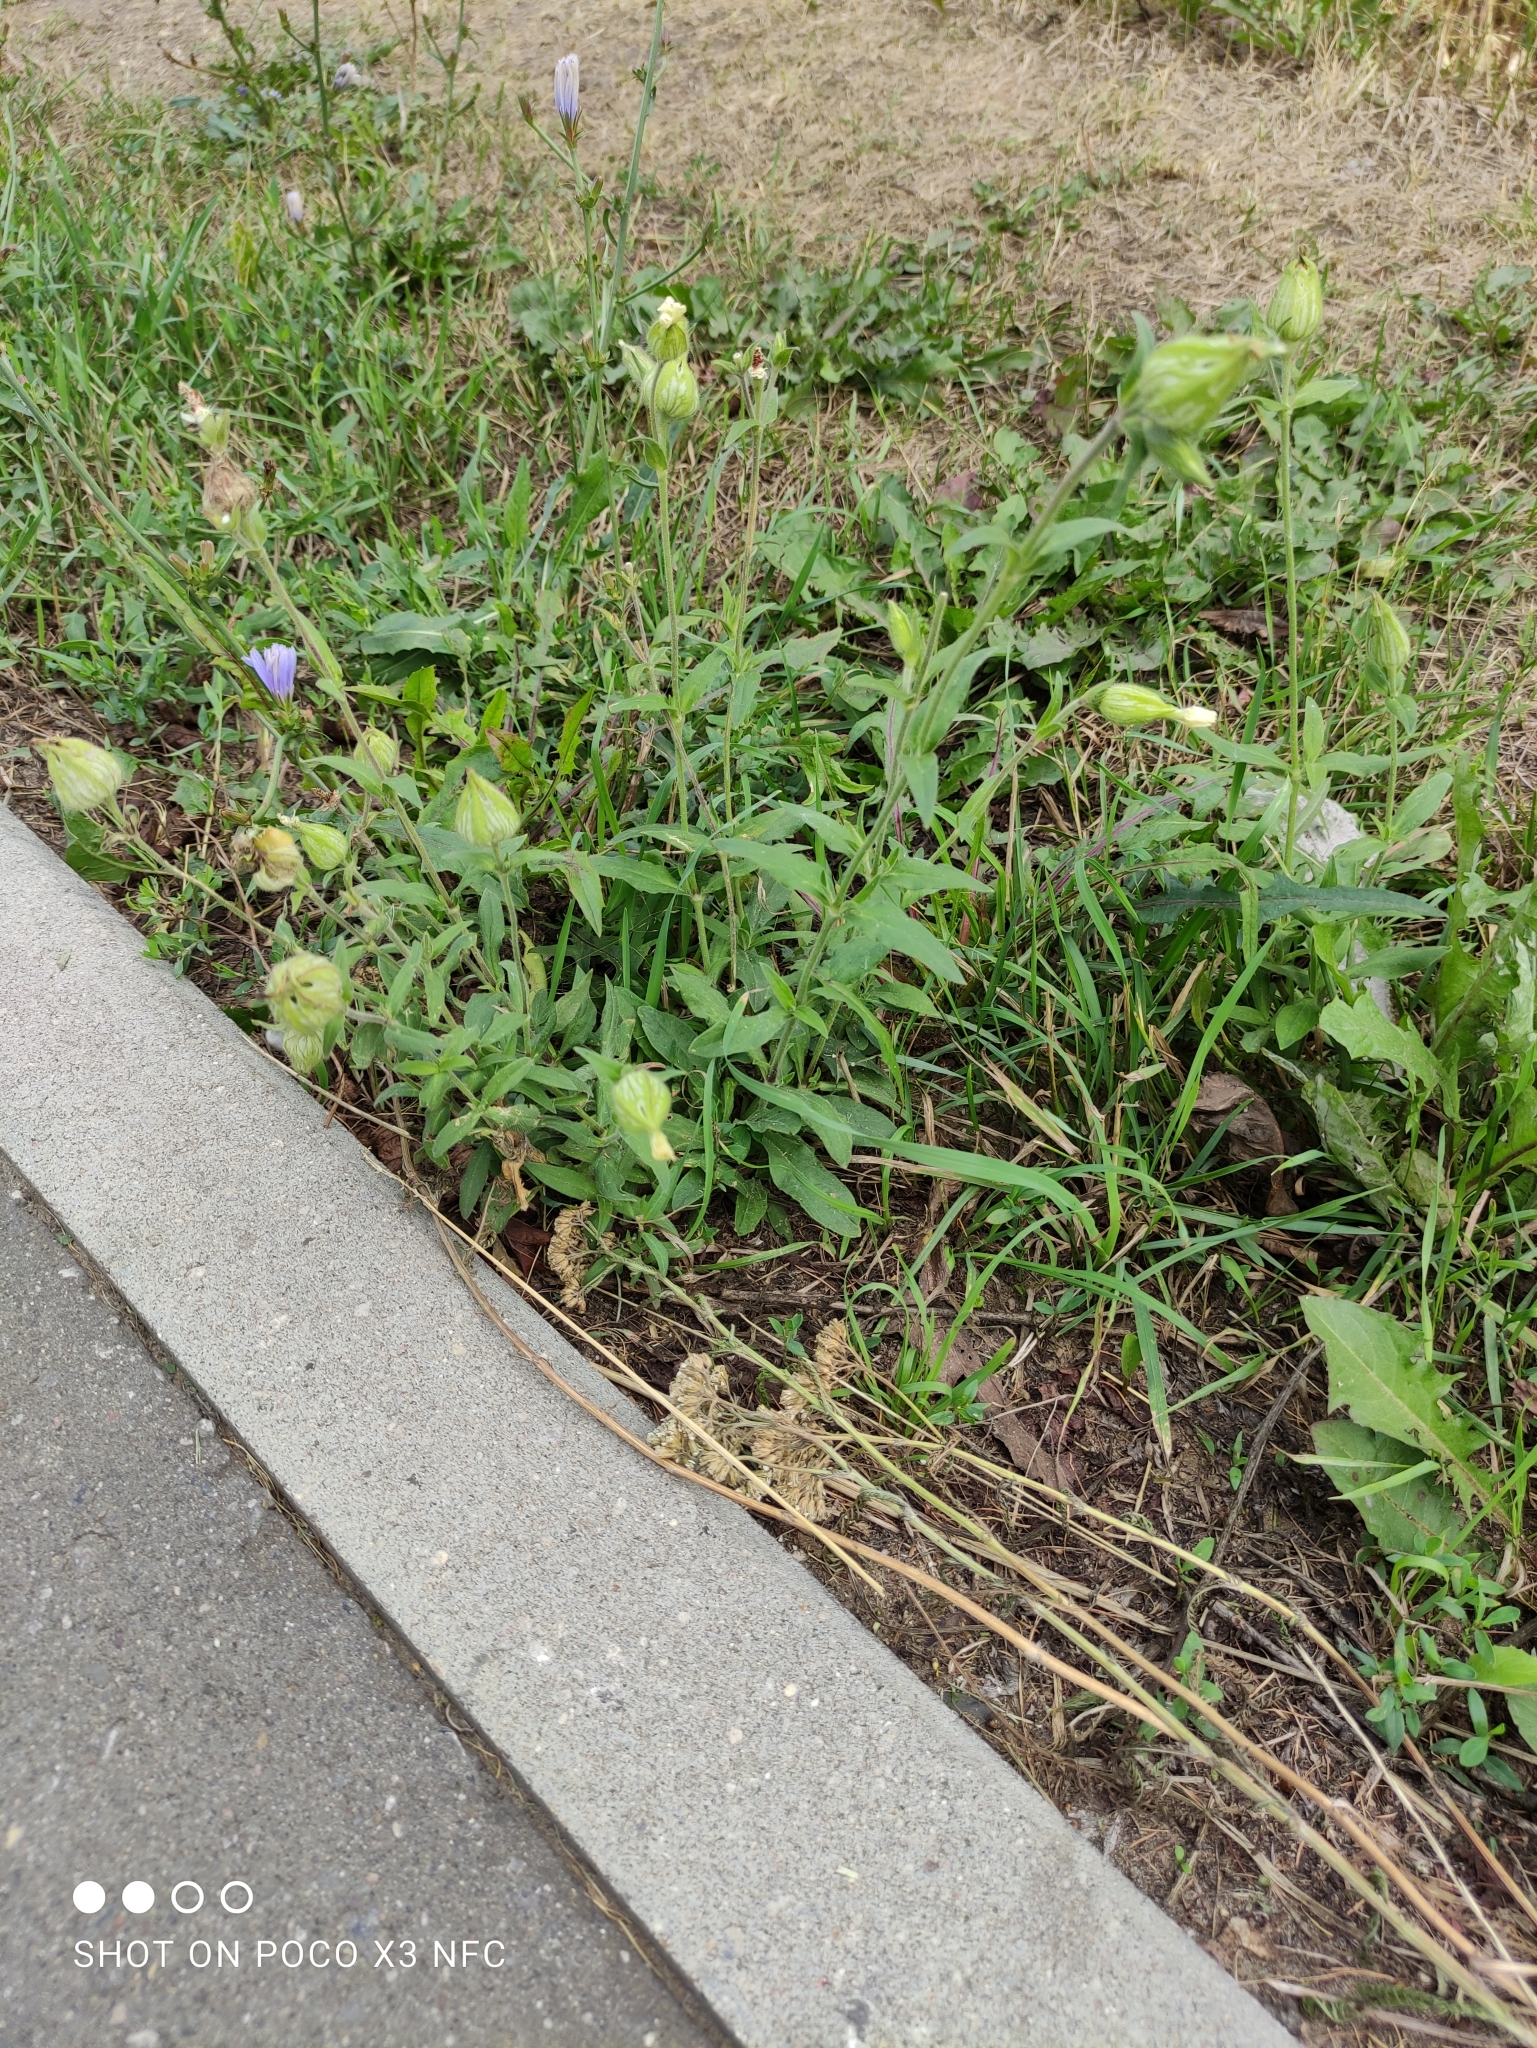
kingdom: Plantae
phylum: Tracheophyta
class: Magnoliopsida
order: Caryophyllales
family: Caryophyllaceae
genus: Silene
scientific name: Silene latifolia
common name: White campion
